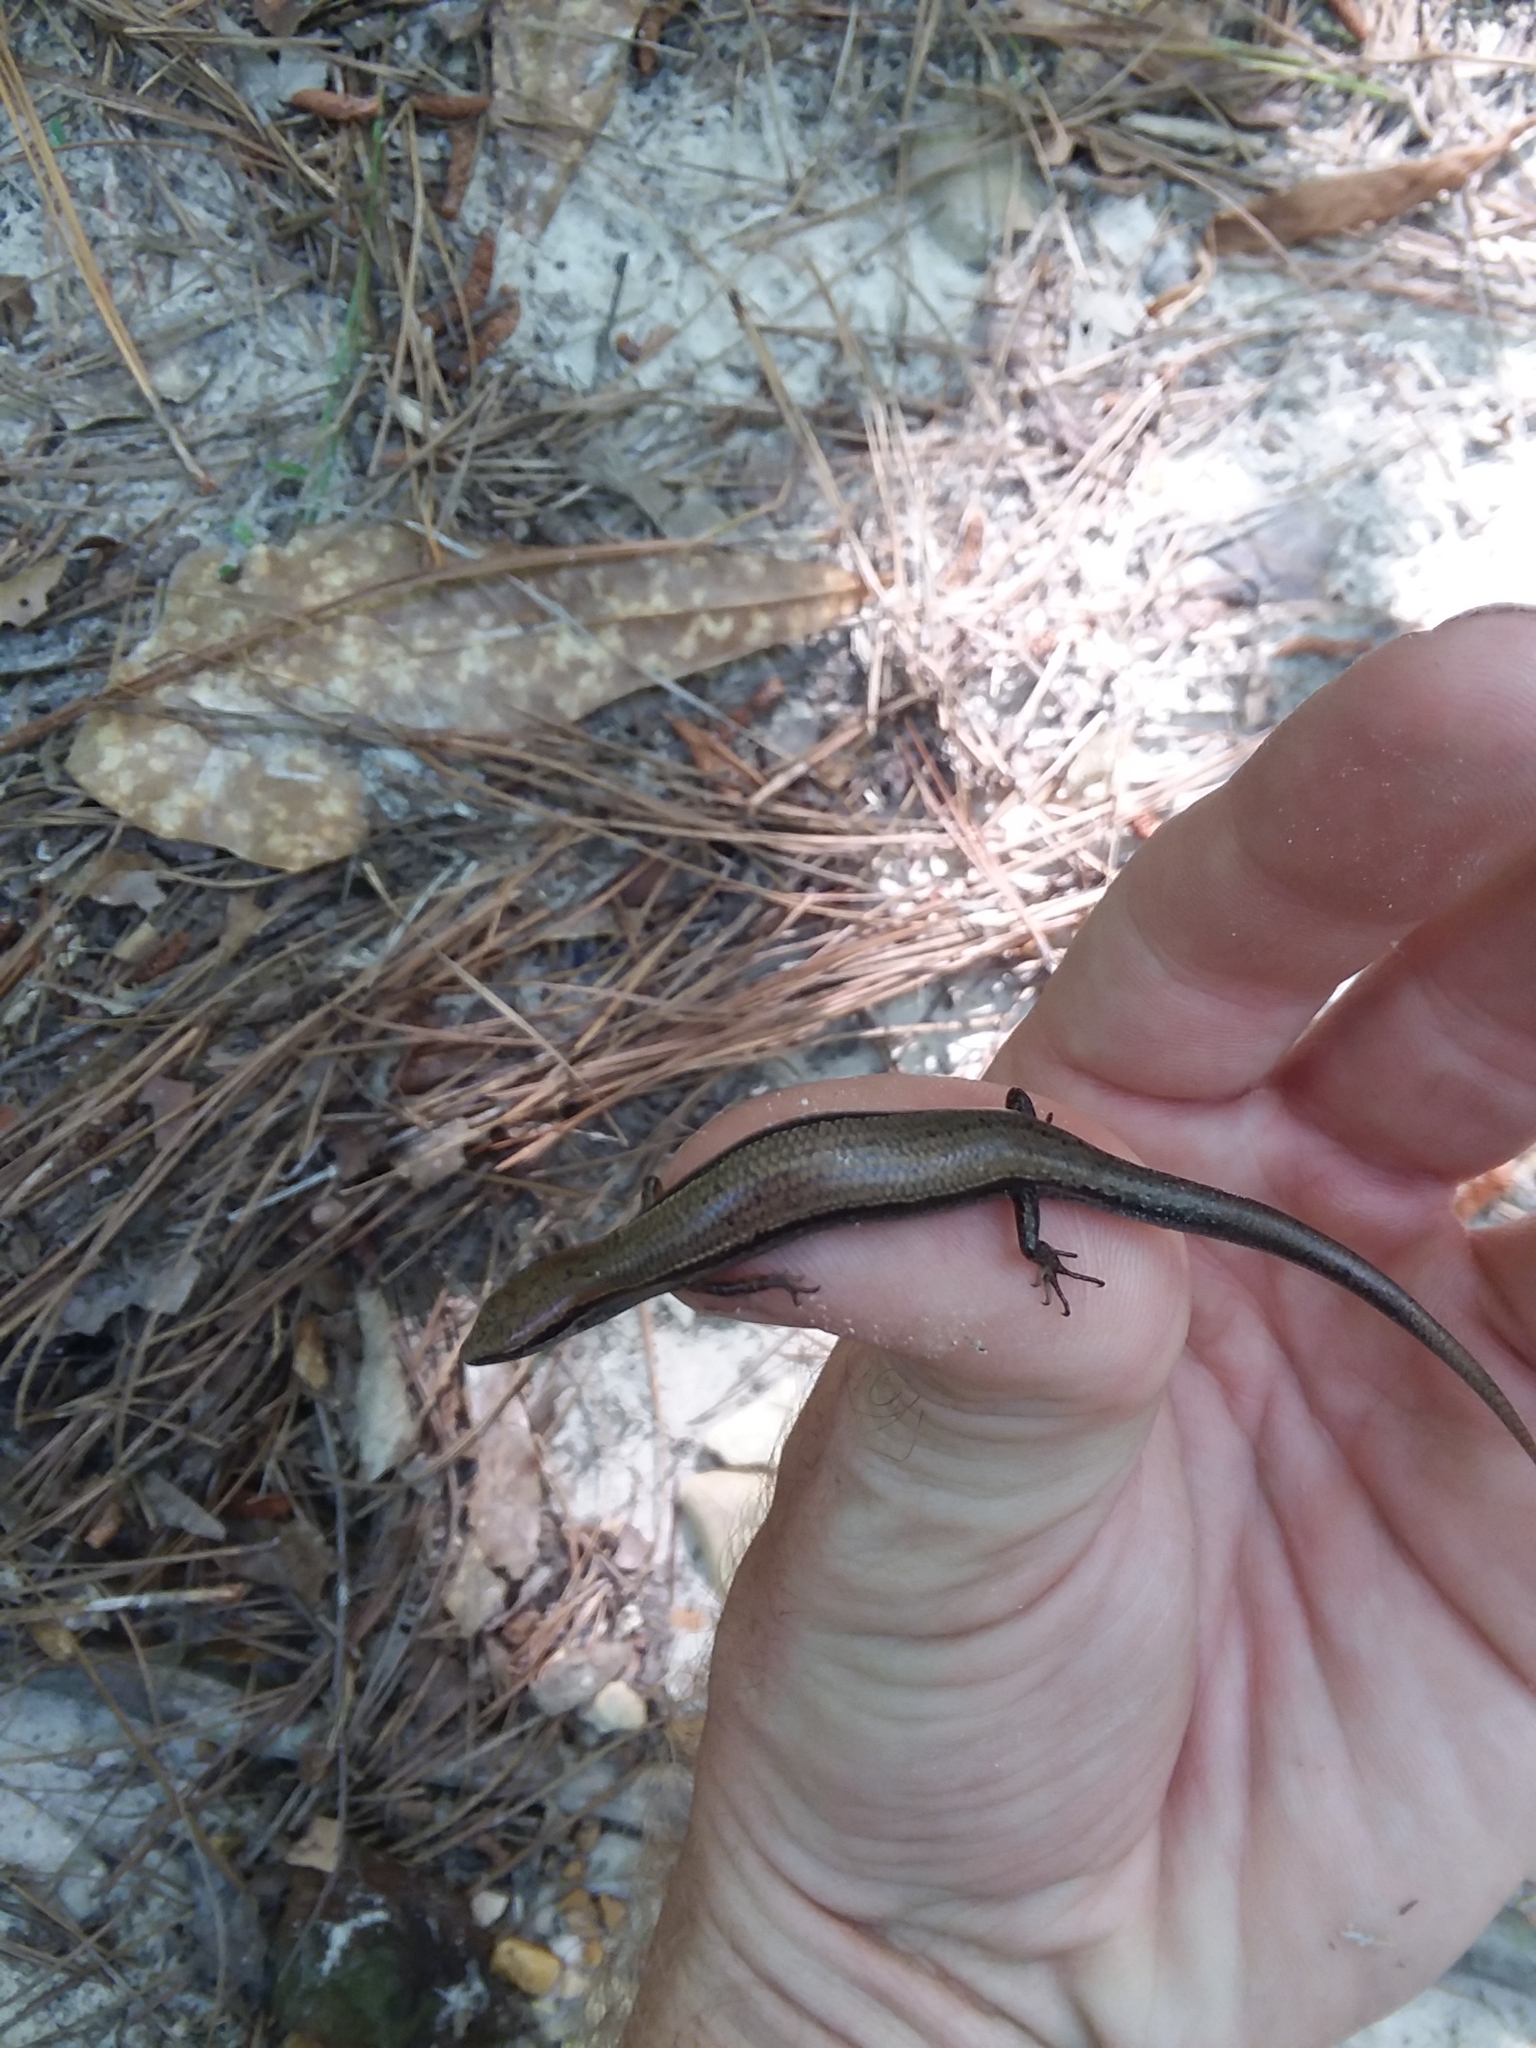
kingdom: Animalia
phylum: Chordata
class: Squamata
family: Scincidae
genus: Scincella
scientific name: Scincella lateralis
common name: Ground skink
